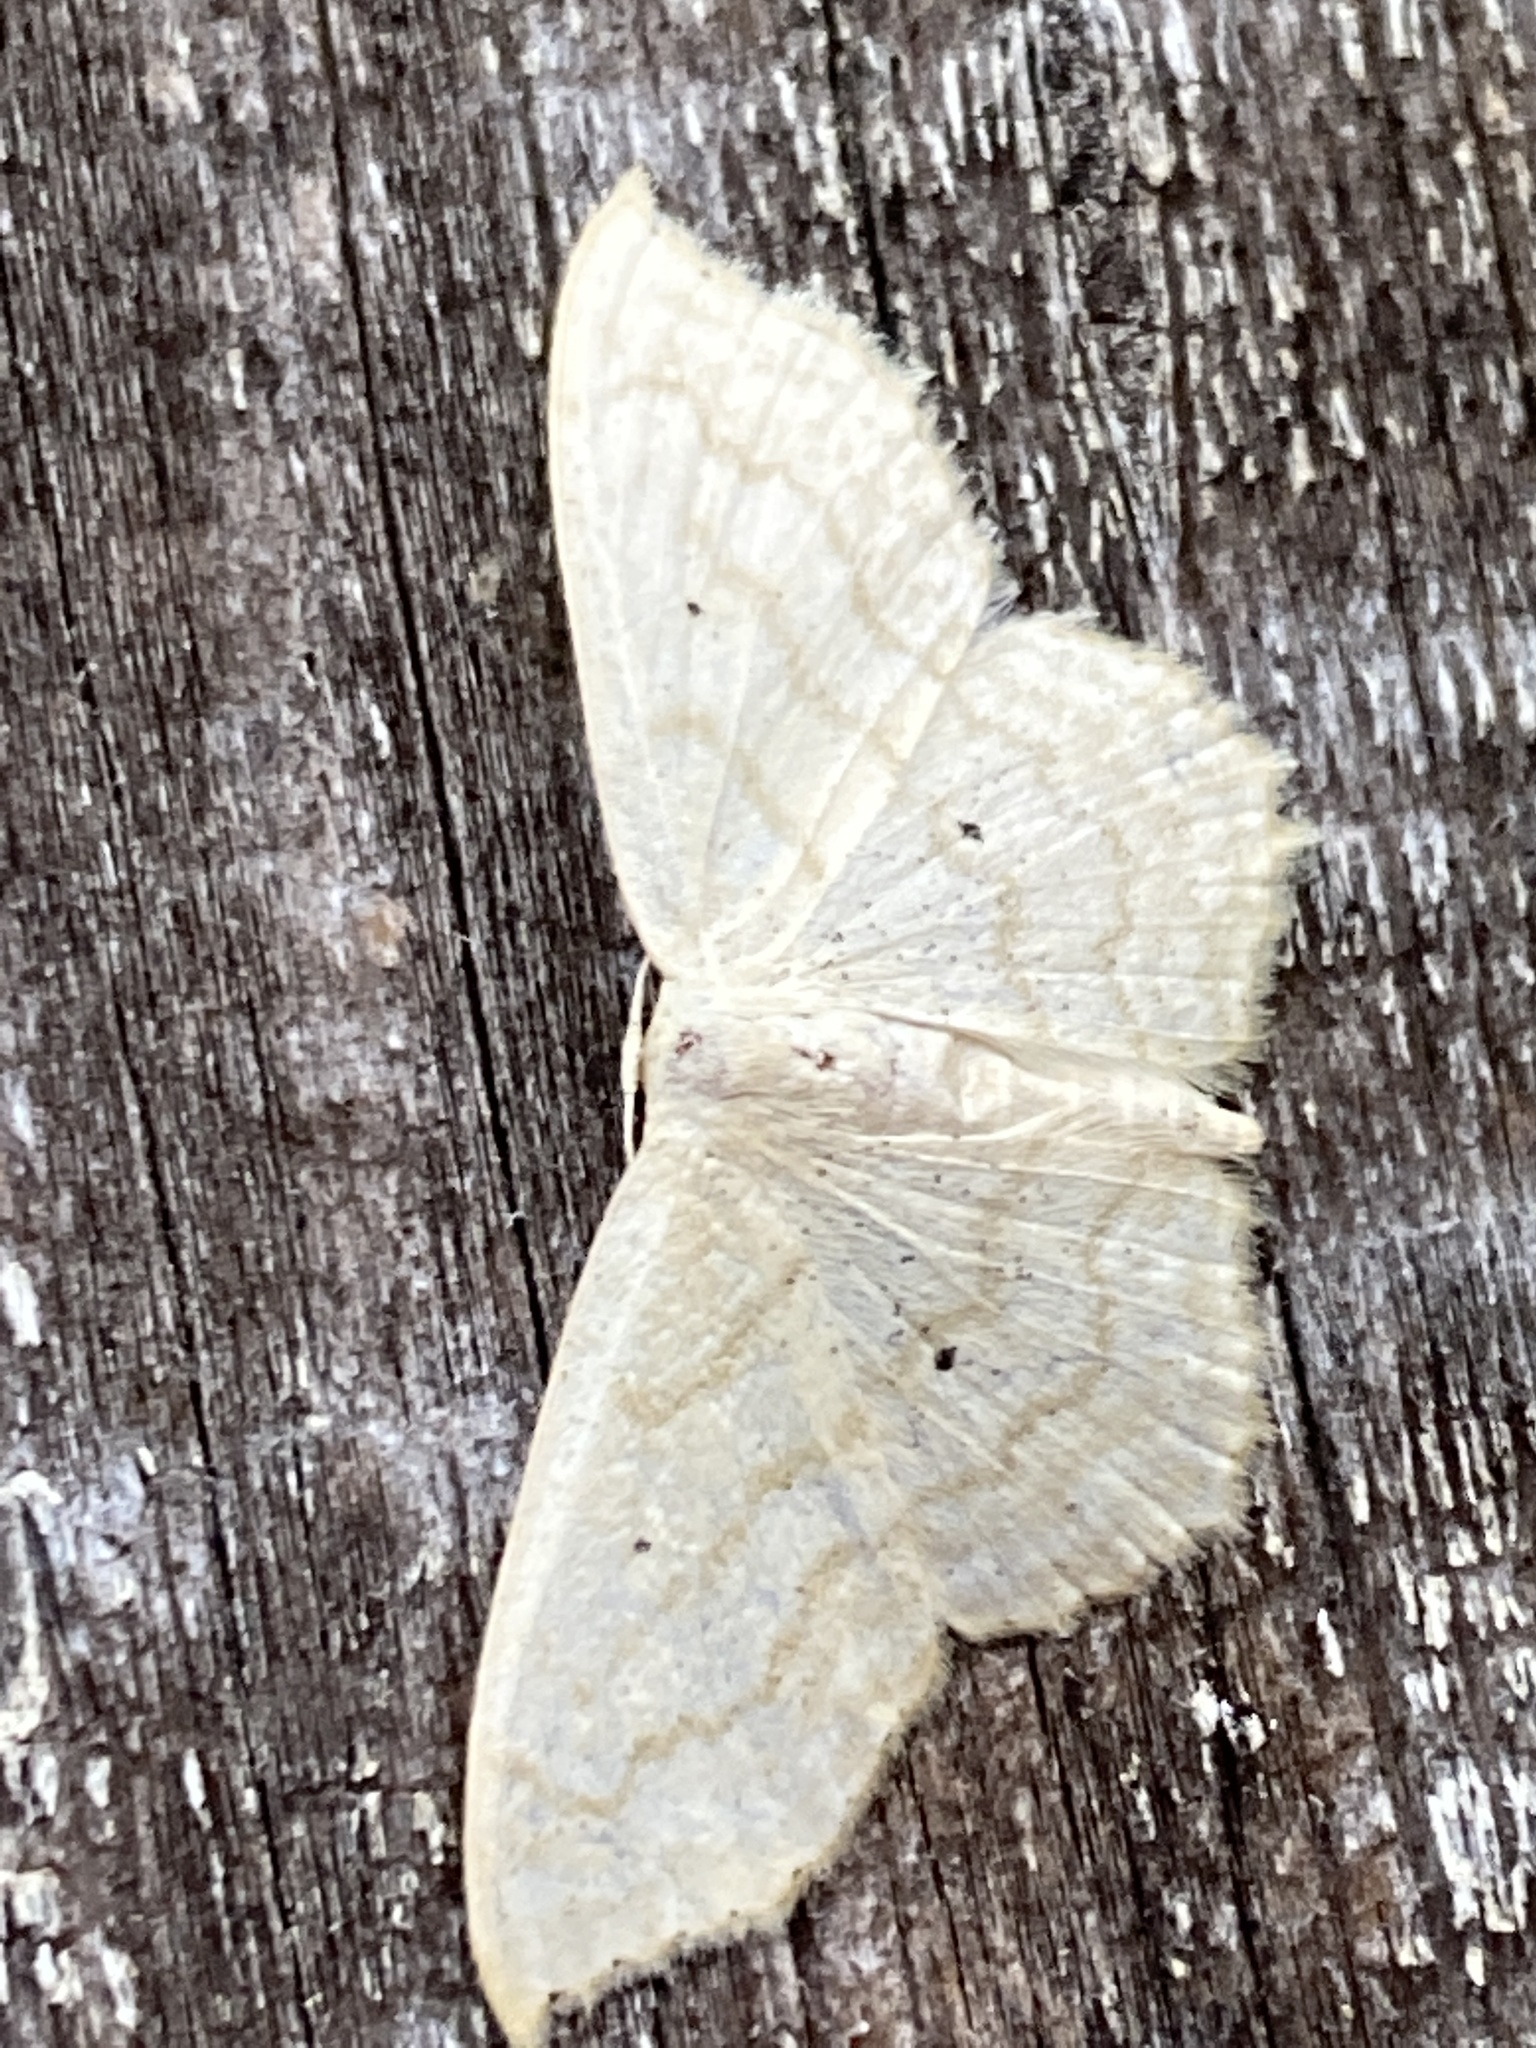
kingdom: Animalia
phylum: Arthropoda
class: Insecta
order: Lepidoptera
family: Geometridae
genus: Scopula
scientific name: Scopula limboundata
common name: Large lace border
